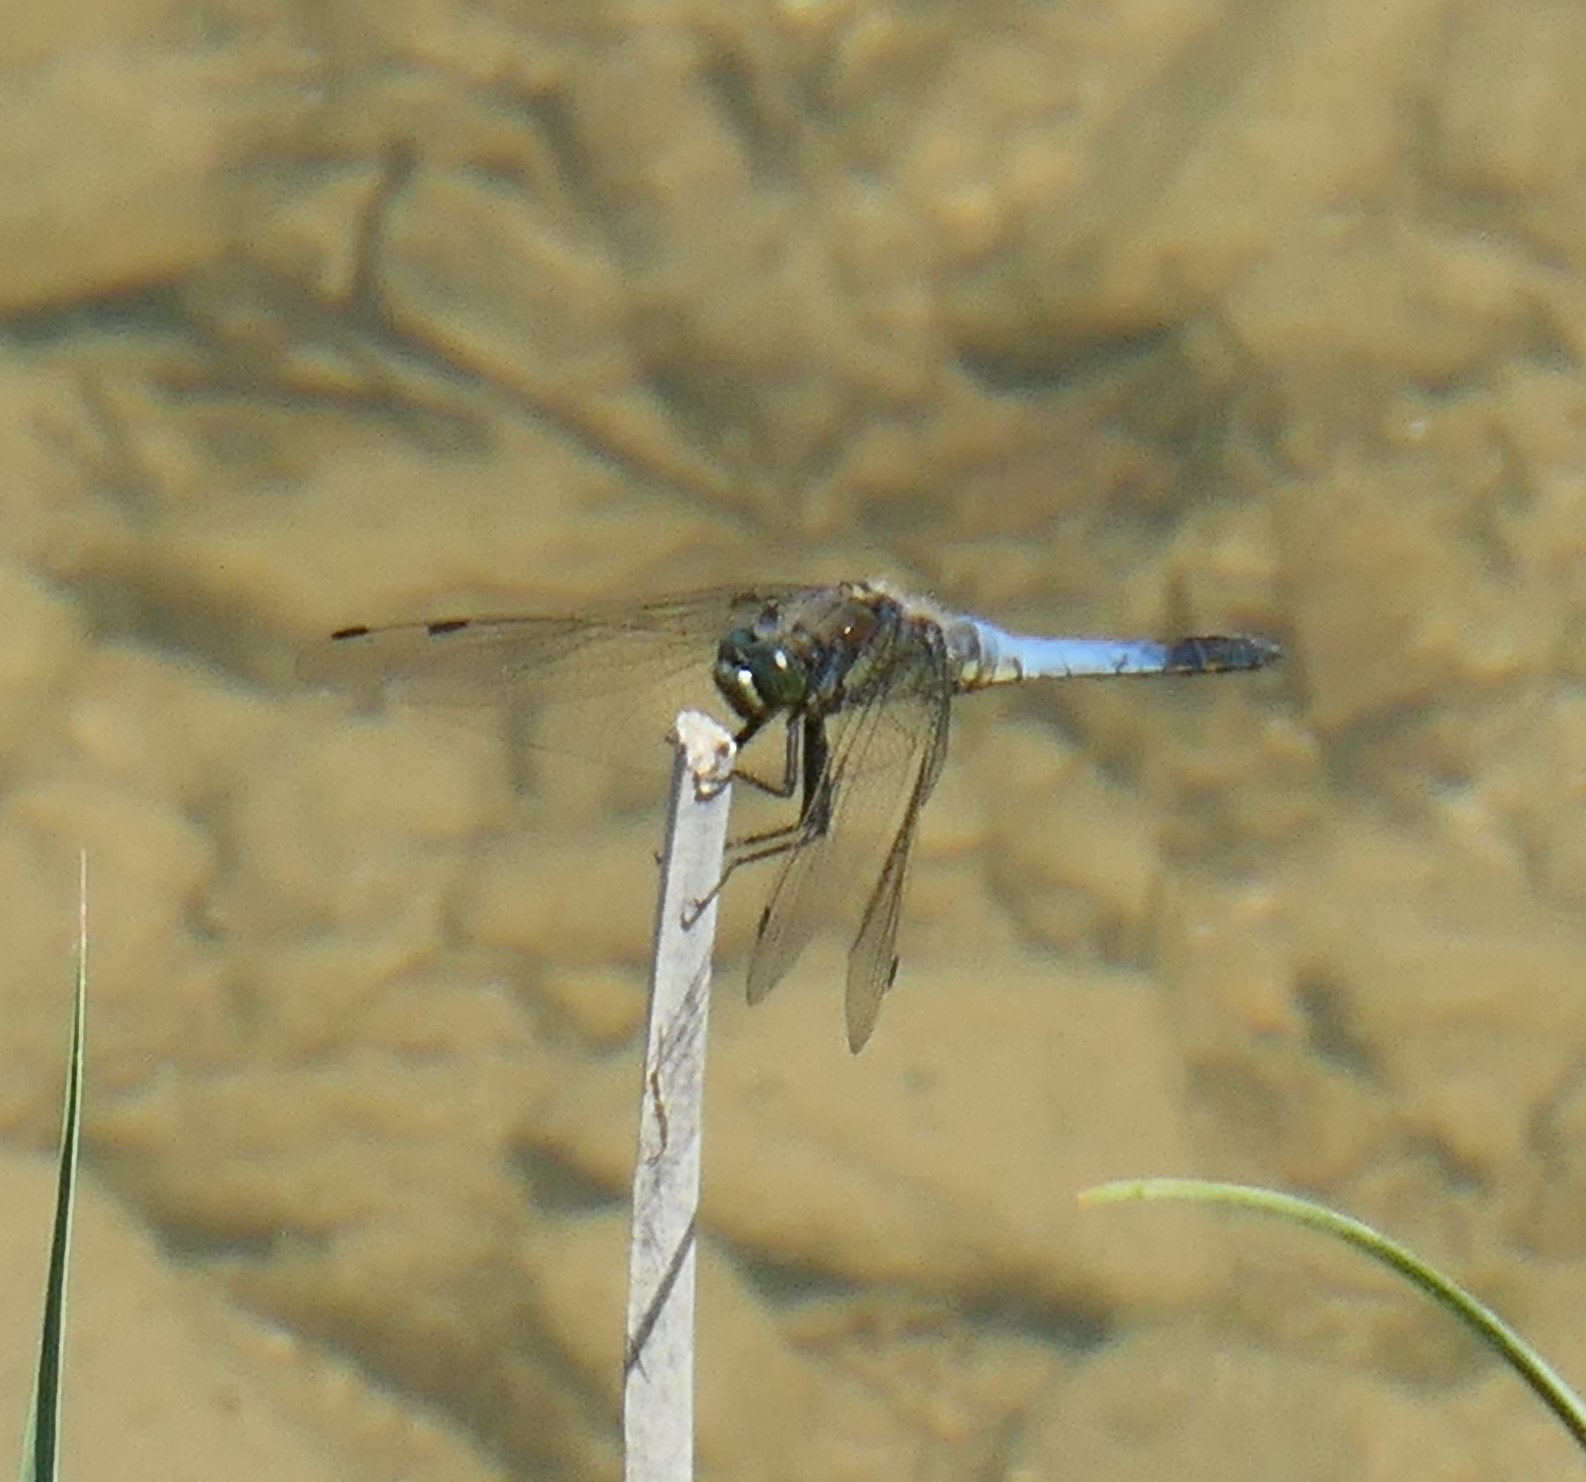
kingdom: Animalia
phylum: Arthropoda
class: Insecta
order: Odonata
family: Libellulidae
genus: Orthetrum
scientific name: Orthetrum cancellatum
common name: Black-tailed skimmer
